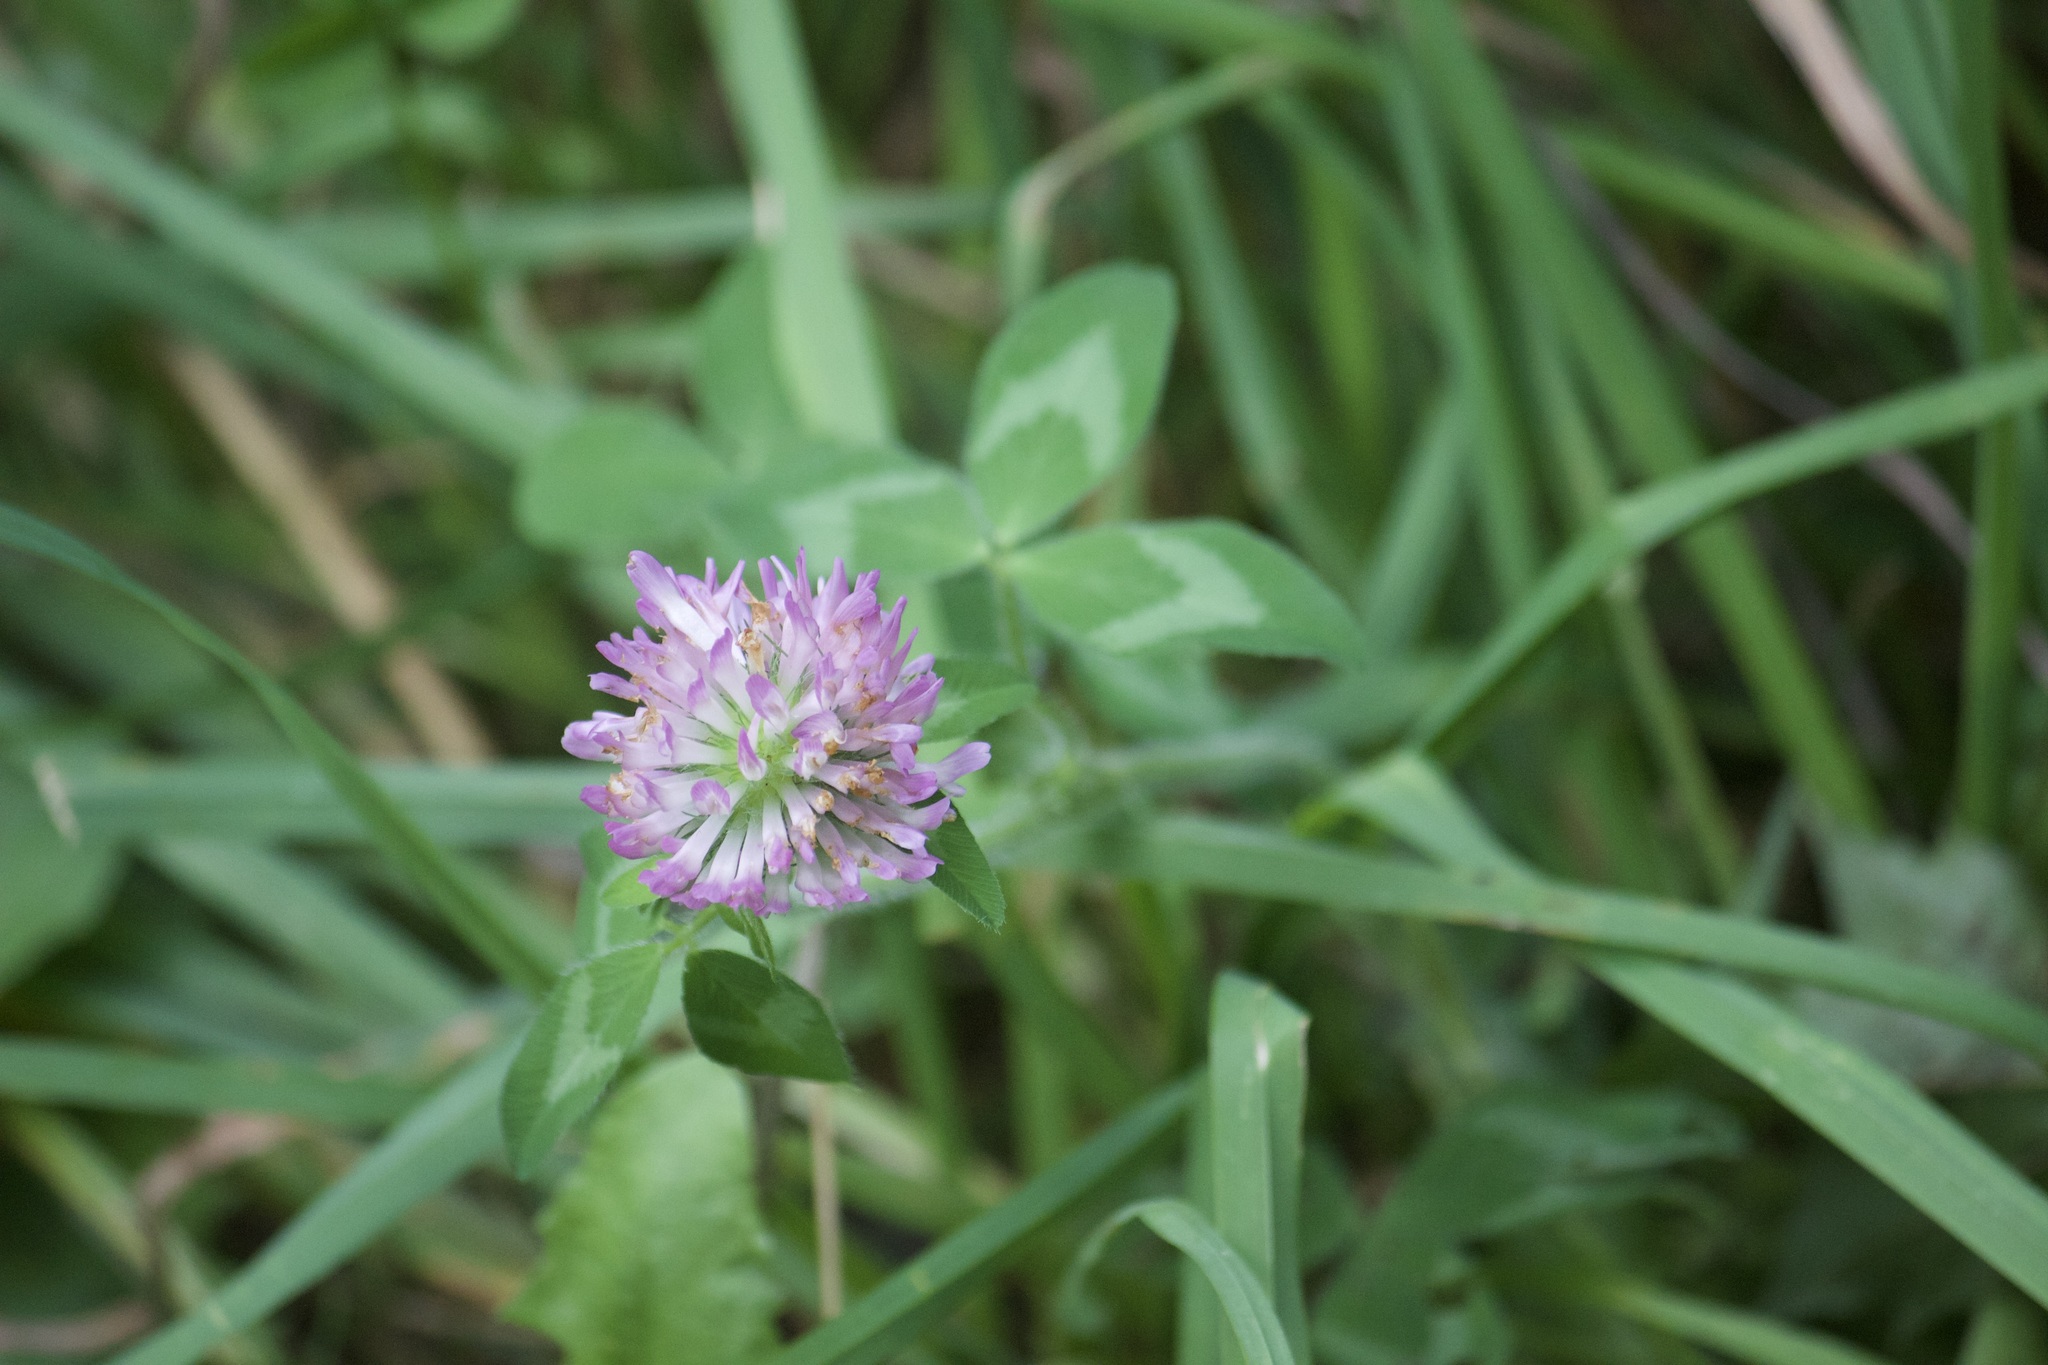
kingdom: Plantae
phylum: Tracheophyta
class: Magnoliopsida
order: Fabales
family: Fabaceae
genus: Trifolium
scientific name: Trifolium pratense
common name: Red clover
